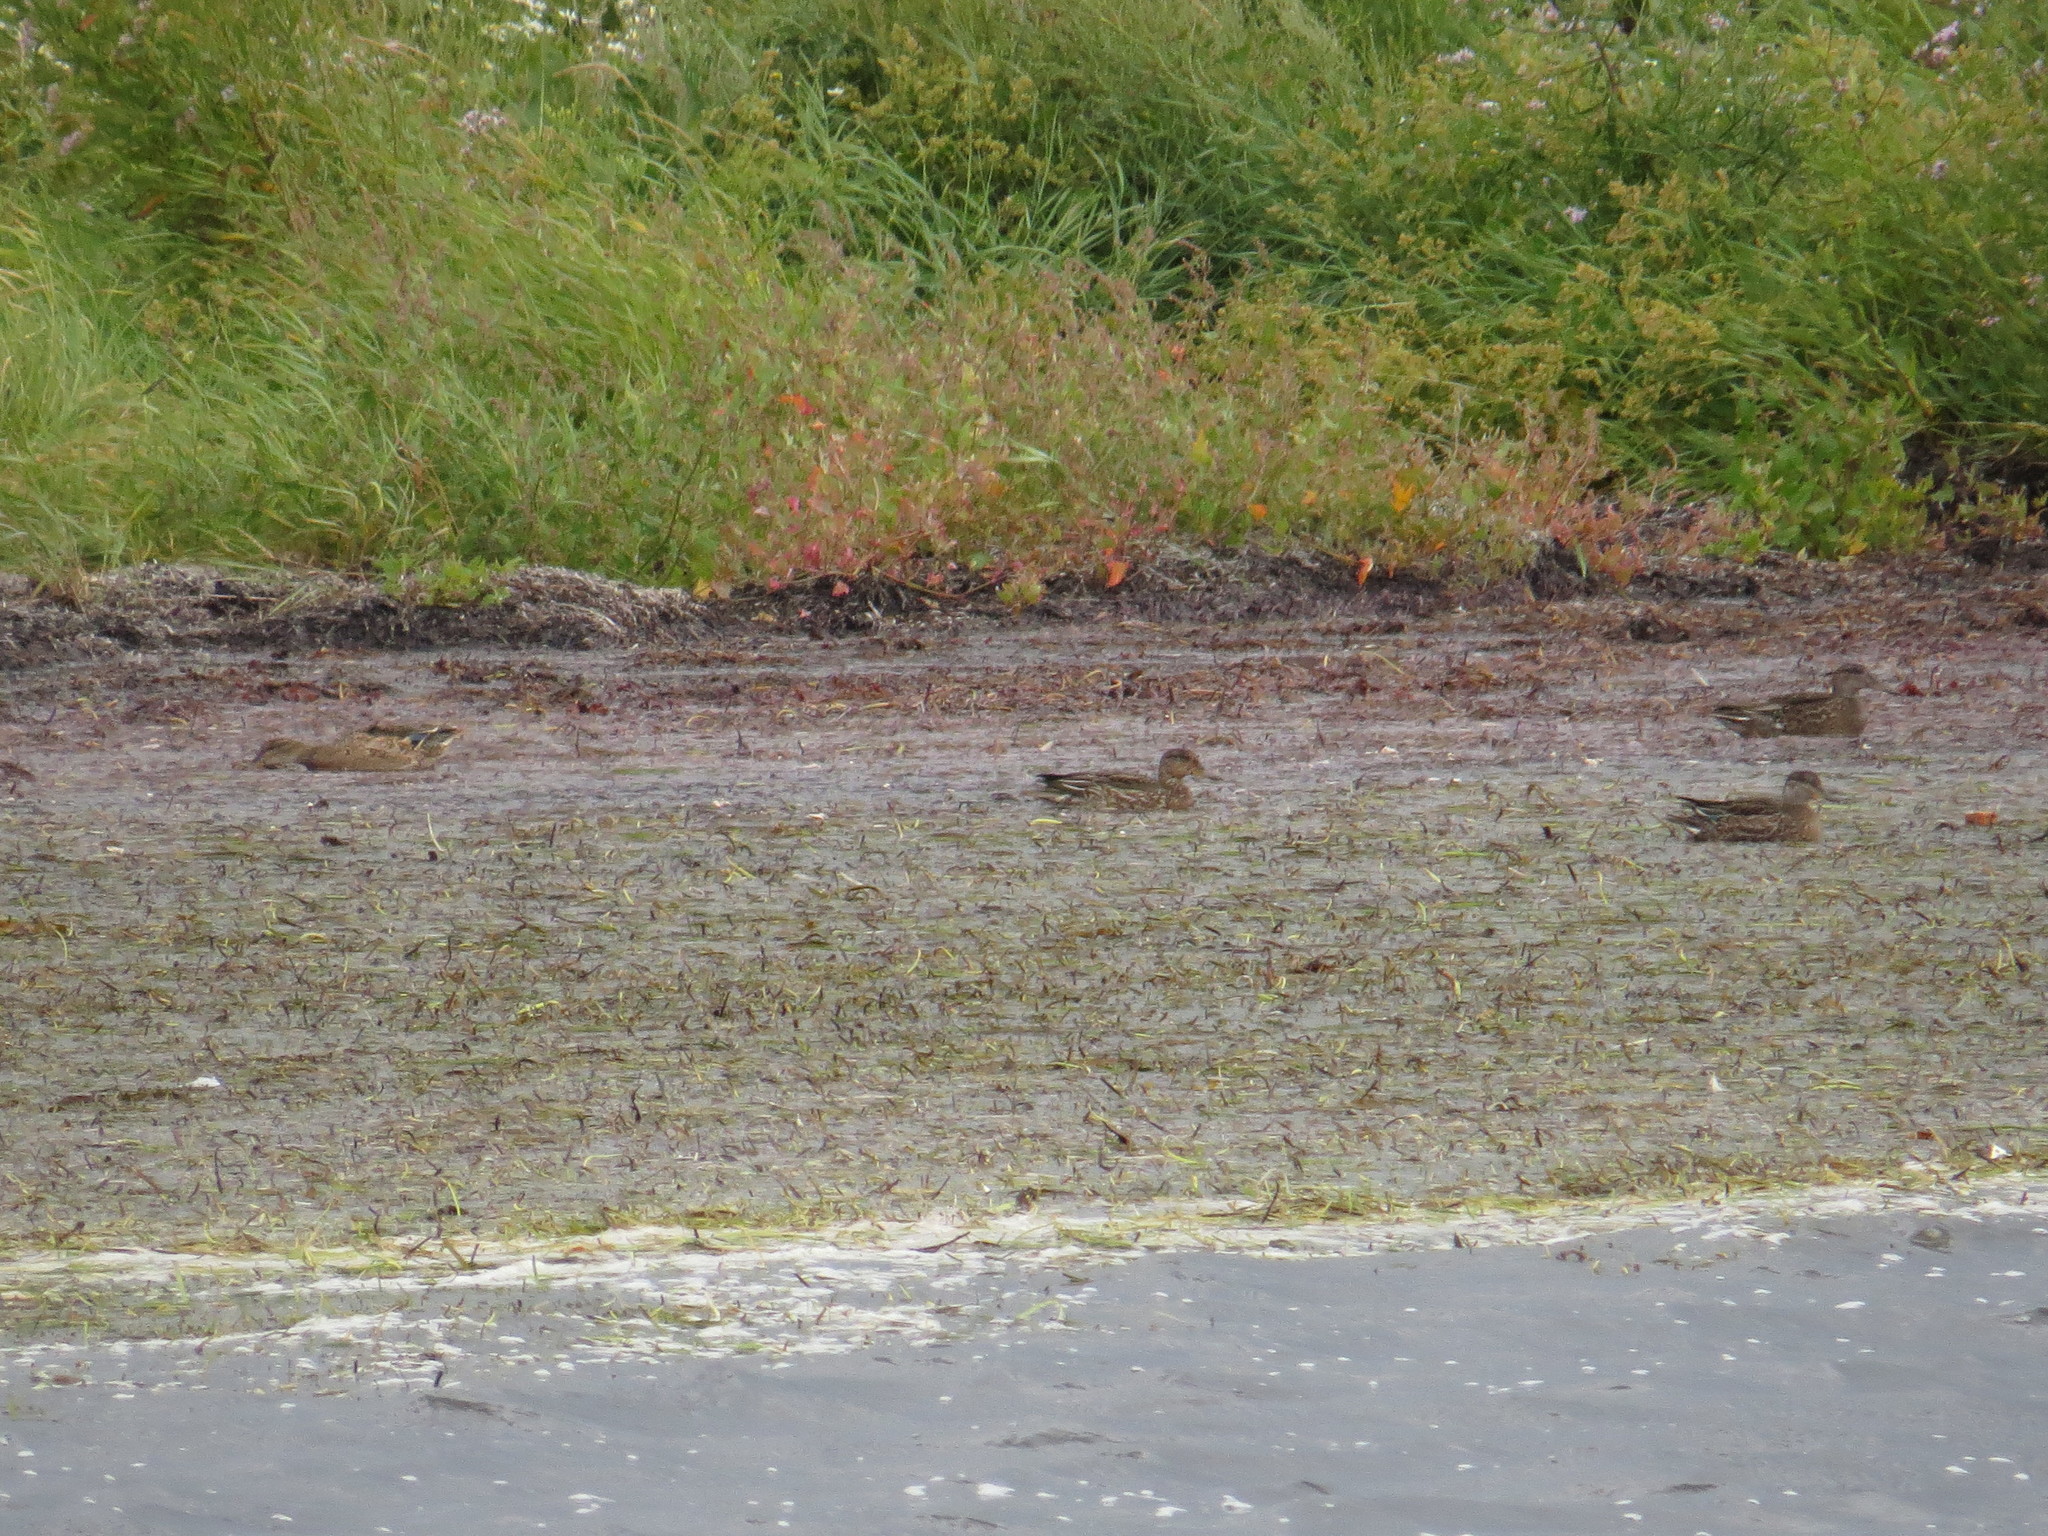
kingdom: Animalia
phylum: Chordata
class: Aves
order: Anseriformes
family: Anatidae
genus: Anas
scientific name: Anas crecca
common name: Eurasian teal
